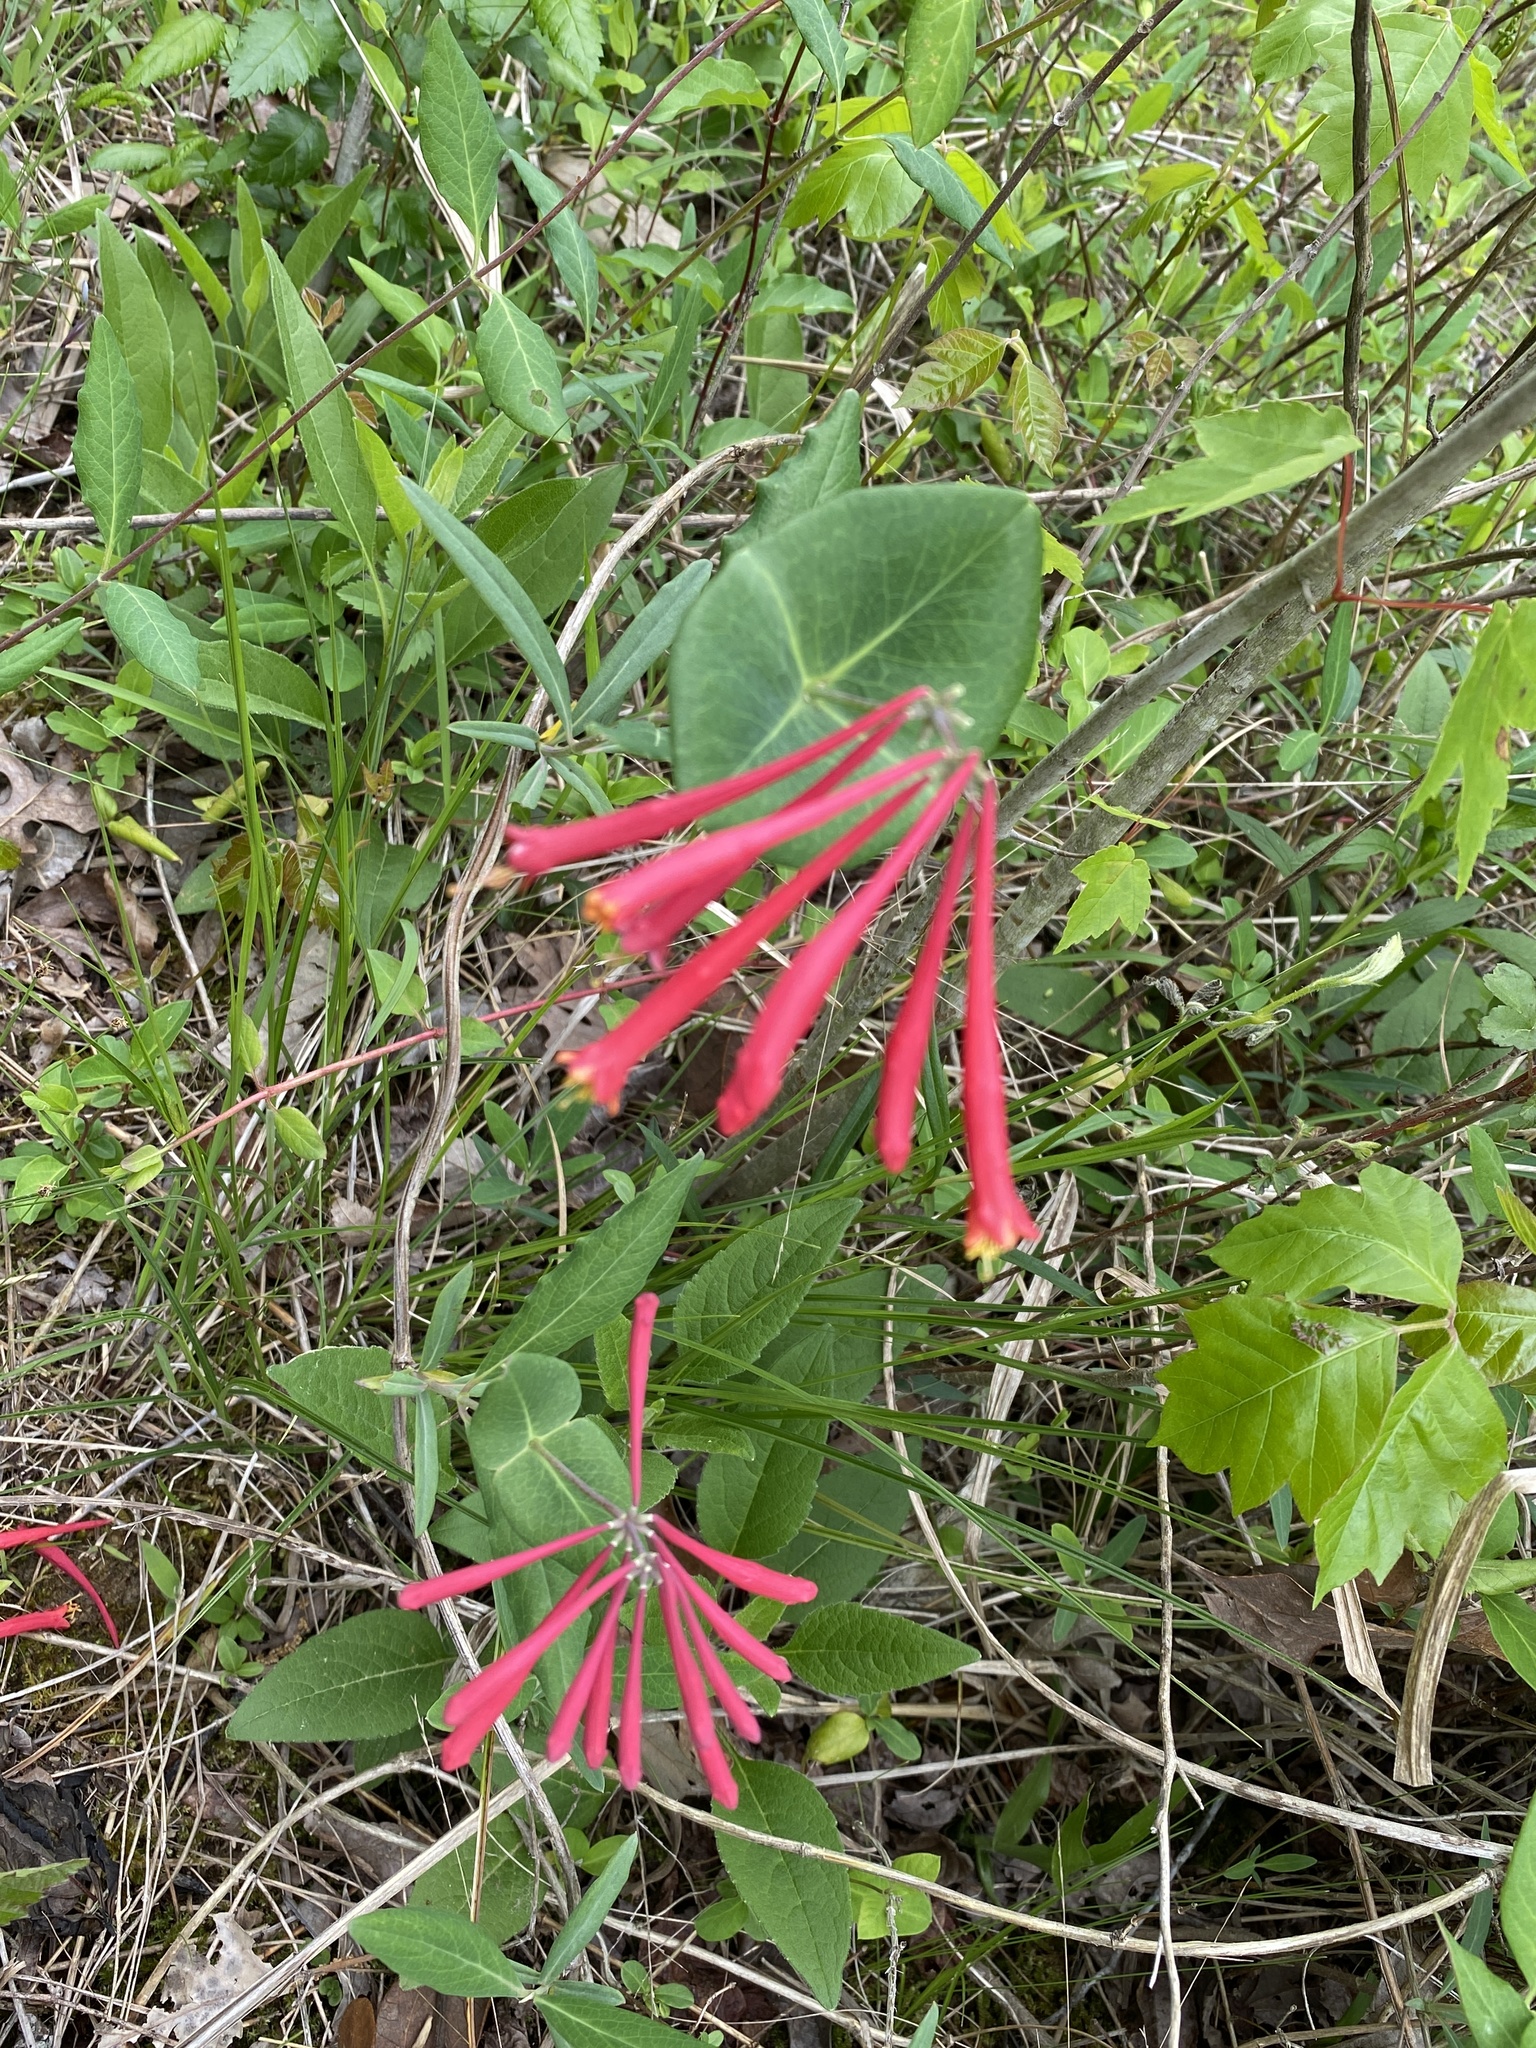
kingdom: Plantae
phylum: Tracheophyta
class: Magnoliopsida
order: Dipsacales
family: Caprifoliaceae
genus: Lonicera
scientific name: Lonicera sempervirens
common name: Coral honeysuckle
